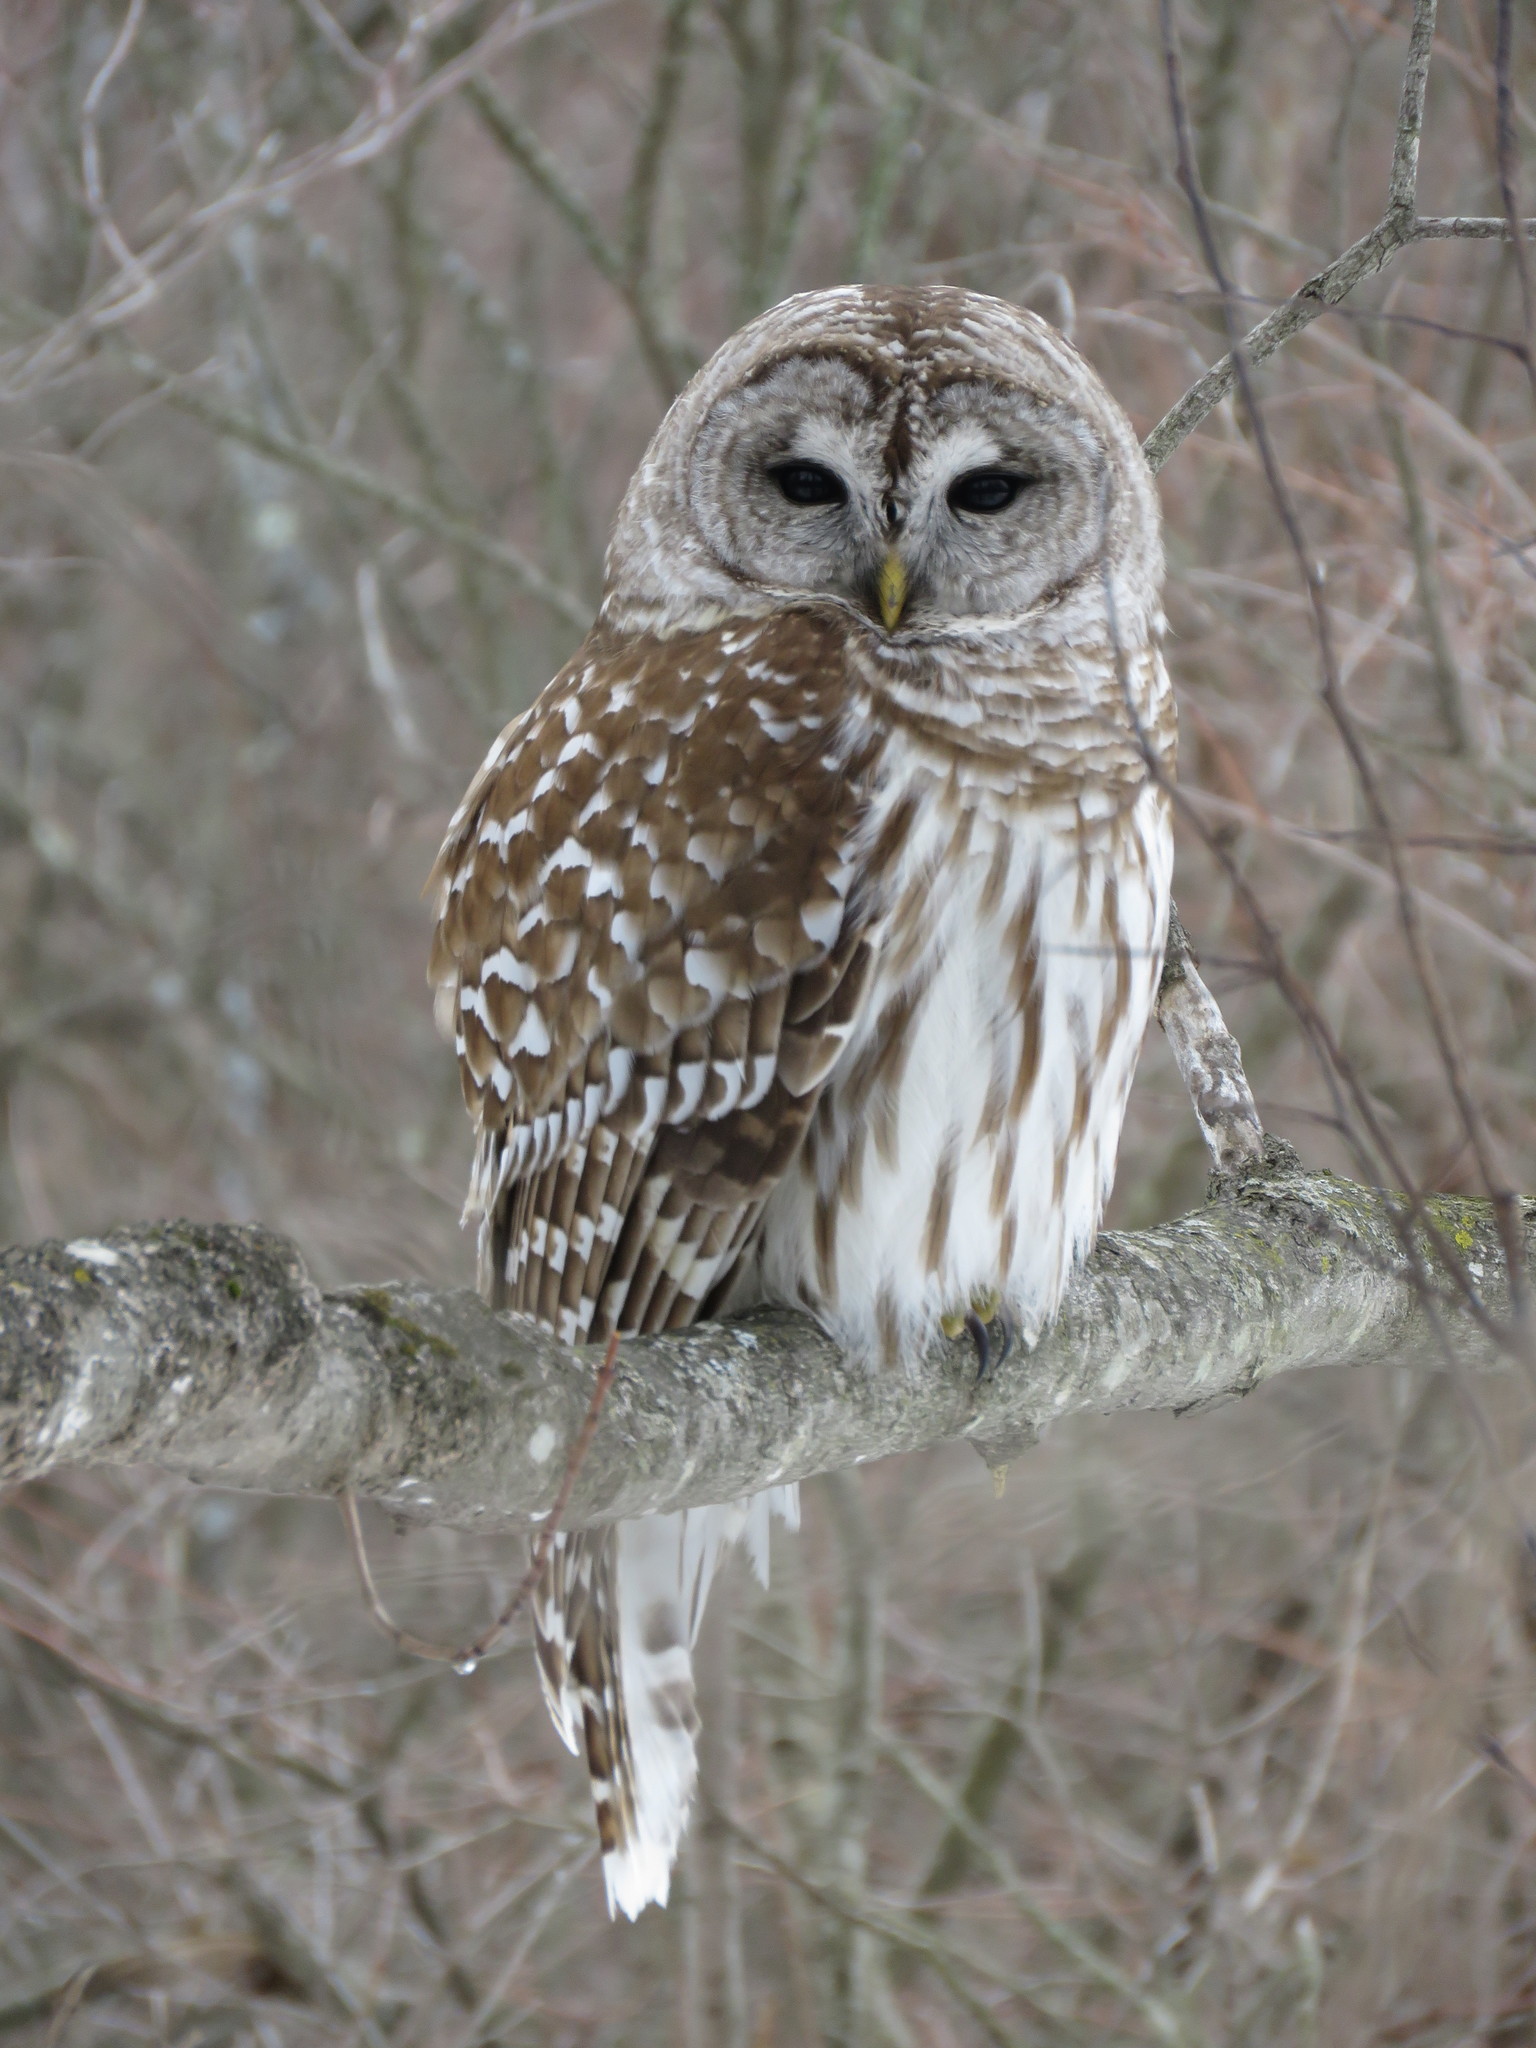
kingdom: Animalia
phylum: Chordata
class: Aves
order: Strigiformes
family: Strigidae
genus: Strix
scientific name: Strix varia
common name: Barred owl
